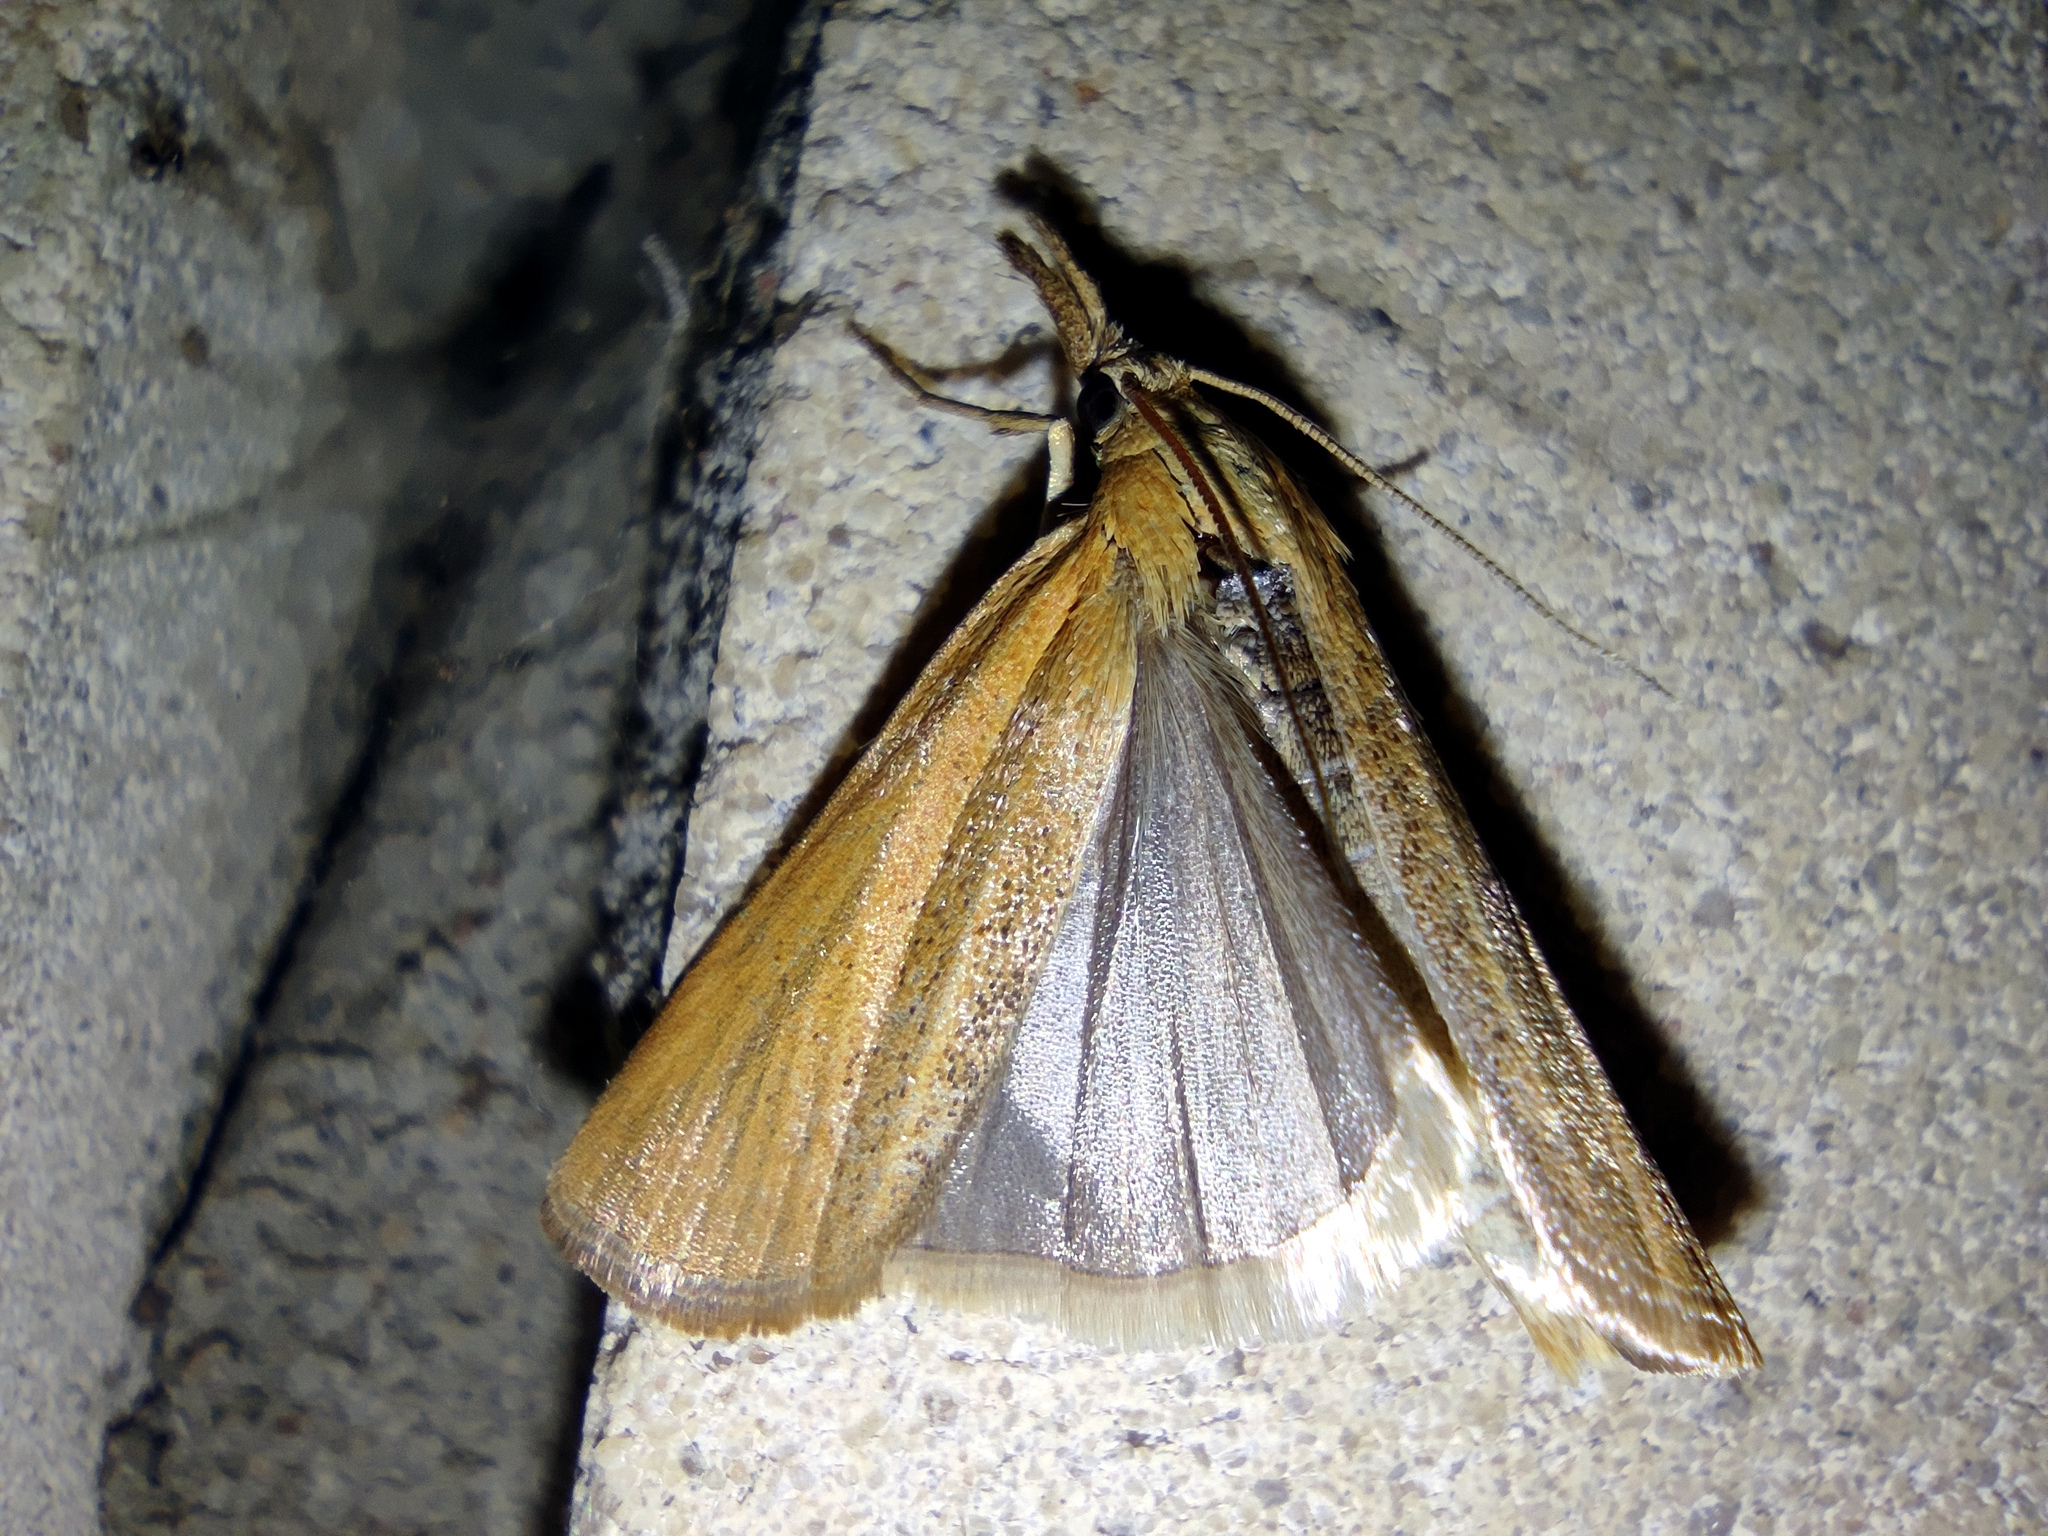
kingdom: Animalia
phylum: Arthropoda
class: Insecta
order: Lepidoptera
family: Crambidae
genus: Pediasia
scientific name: Pediasia luteella
